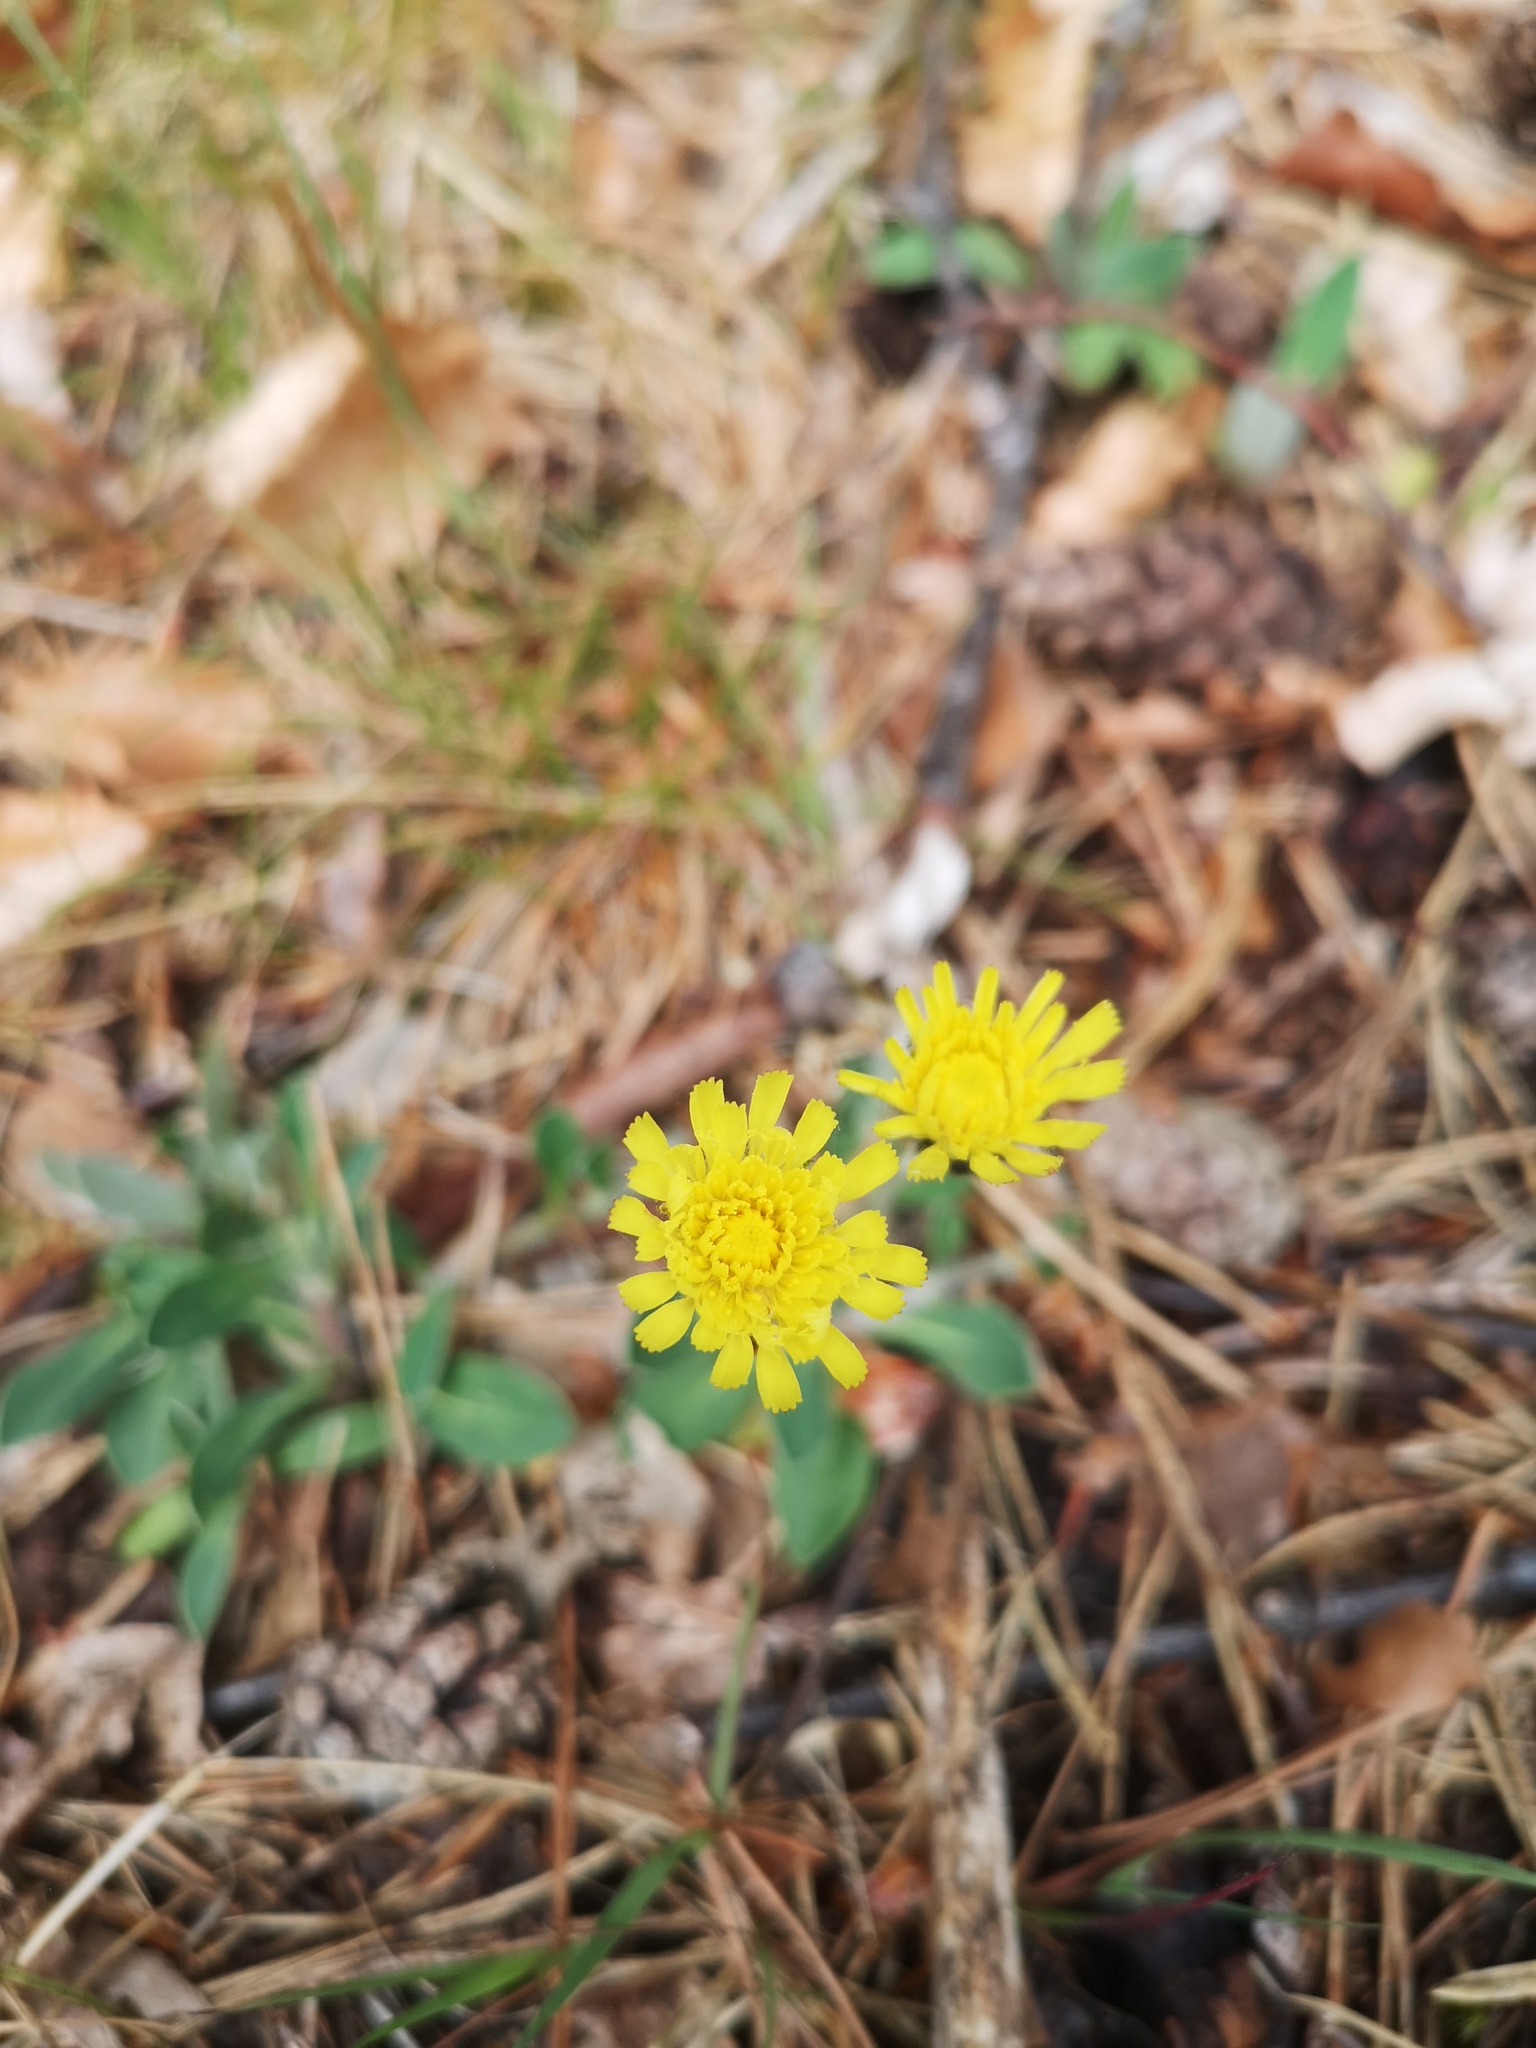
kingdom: Plantae
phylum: Tracheophyta
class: Magnoliopsida
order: Asterales
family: Asteraceae
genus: Pilosella
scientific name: Pilosella officinarum
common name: Mouse-ear hawkweed
